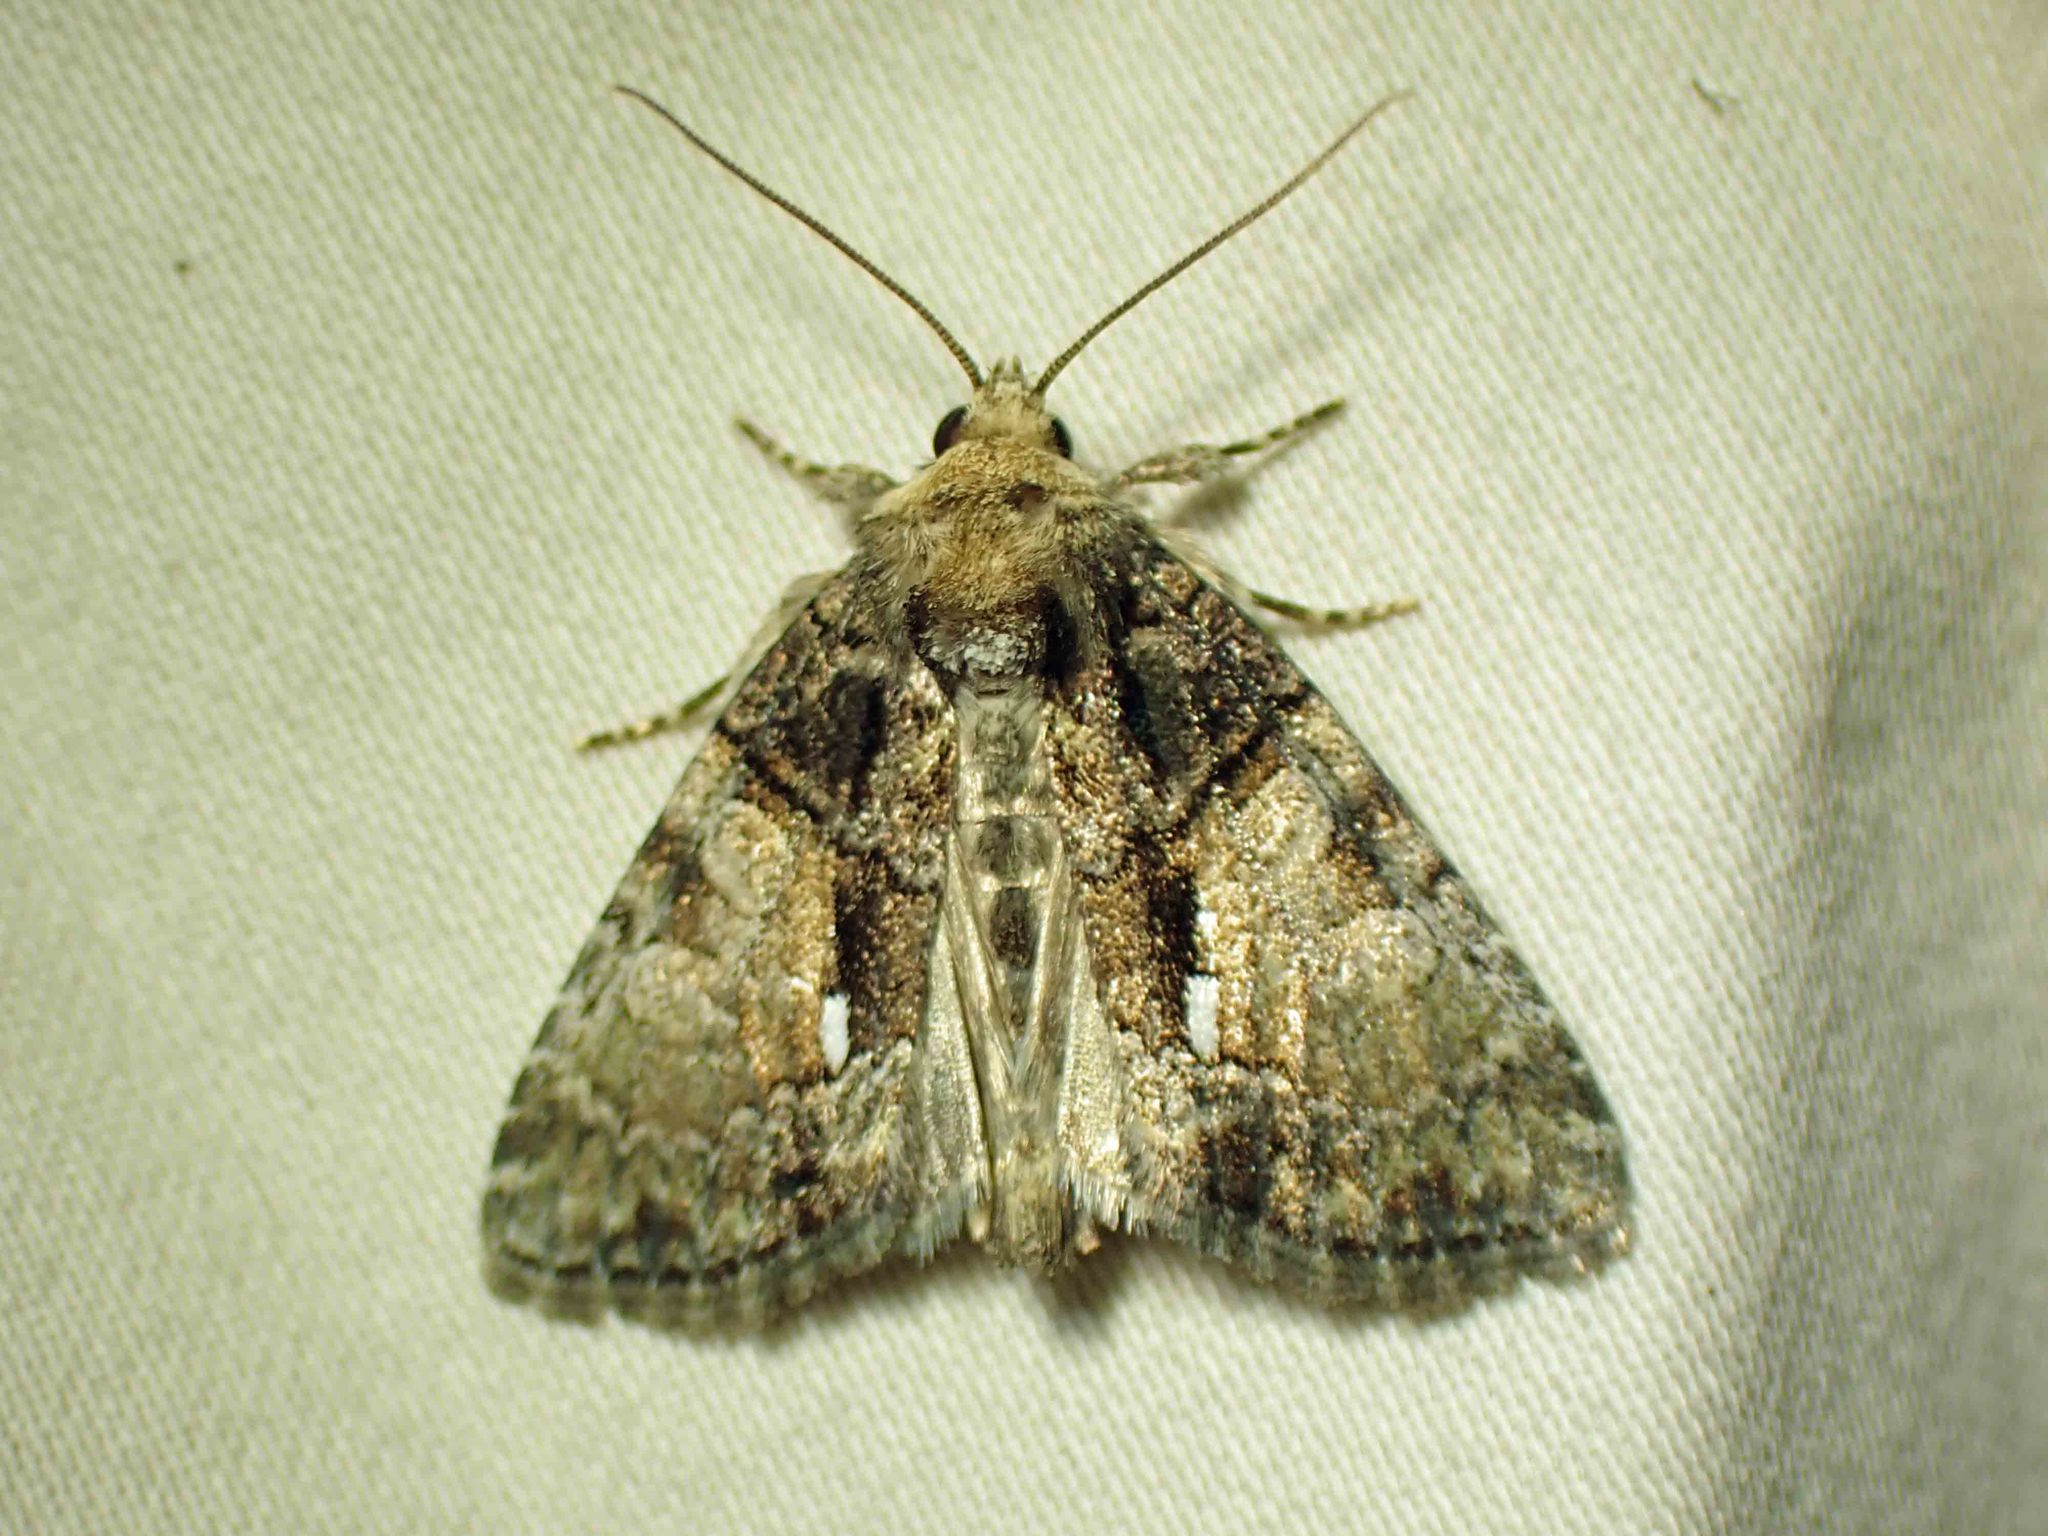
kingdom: Animalia
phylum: Arthropoda
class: Insecta
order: Lepidoptera
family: Noctuidae
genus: Chytonix
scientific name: Chytonix palliatricula
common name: Cloaked marvel
